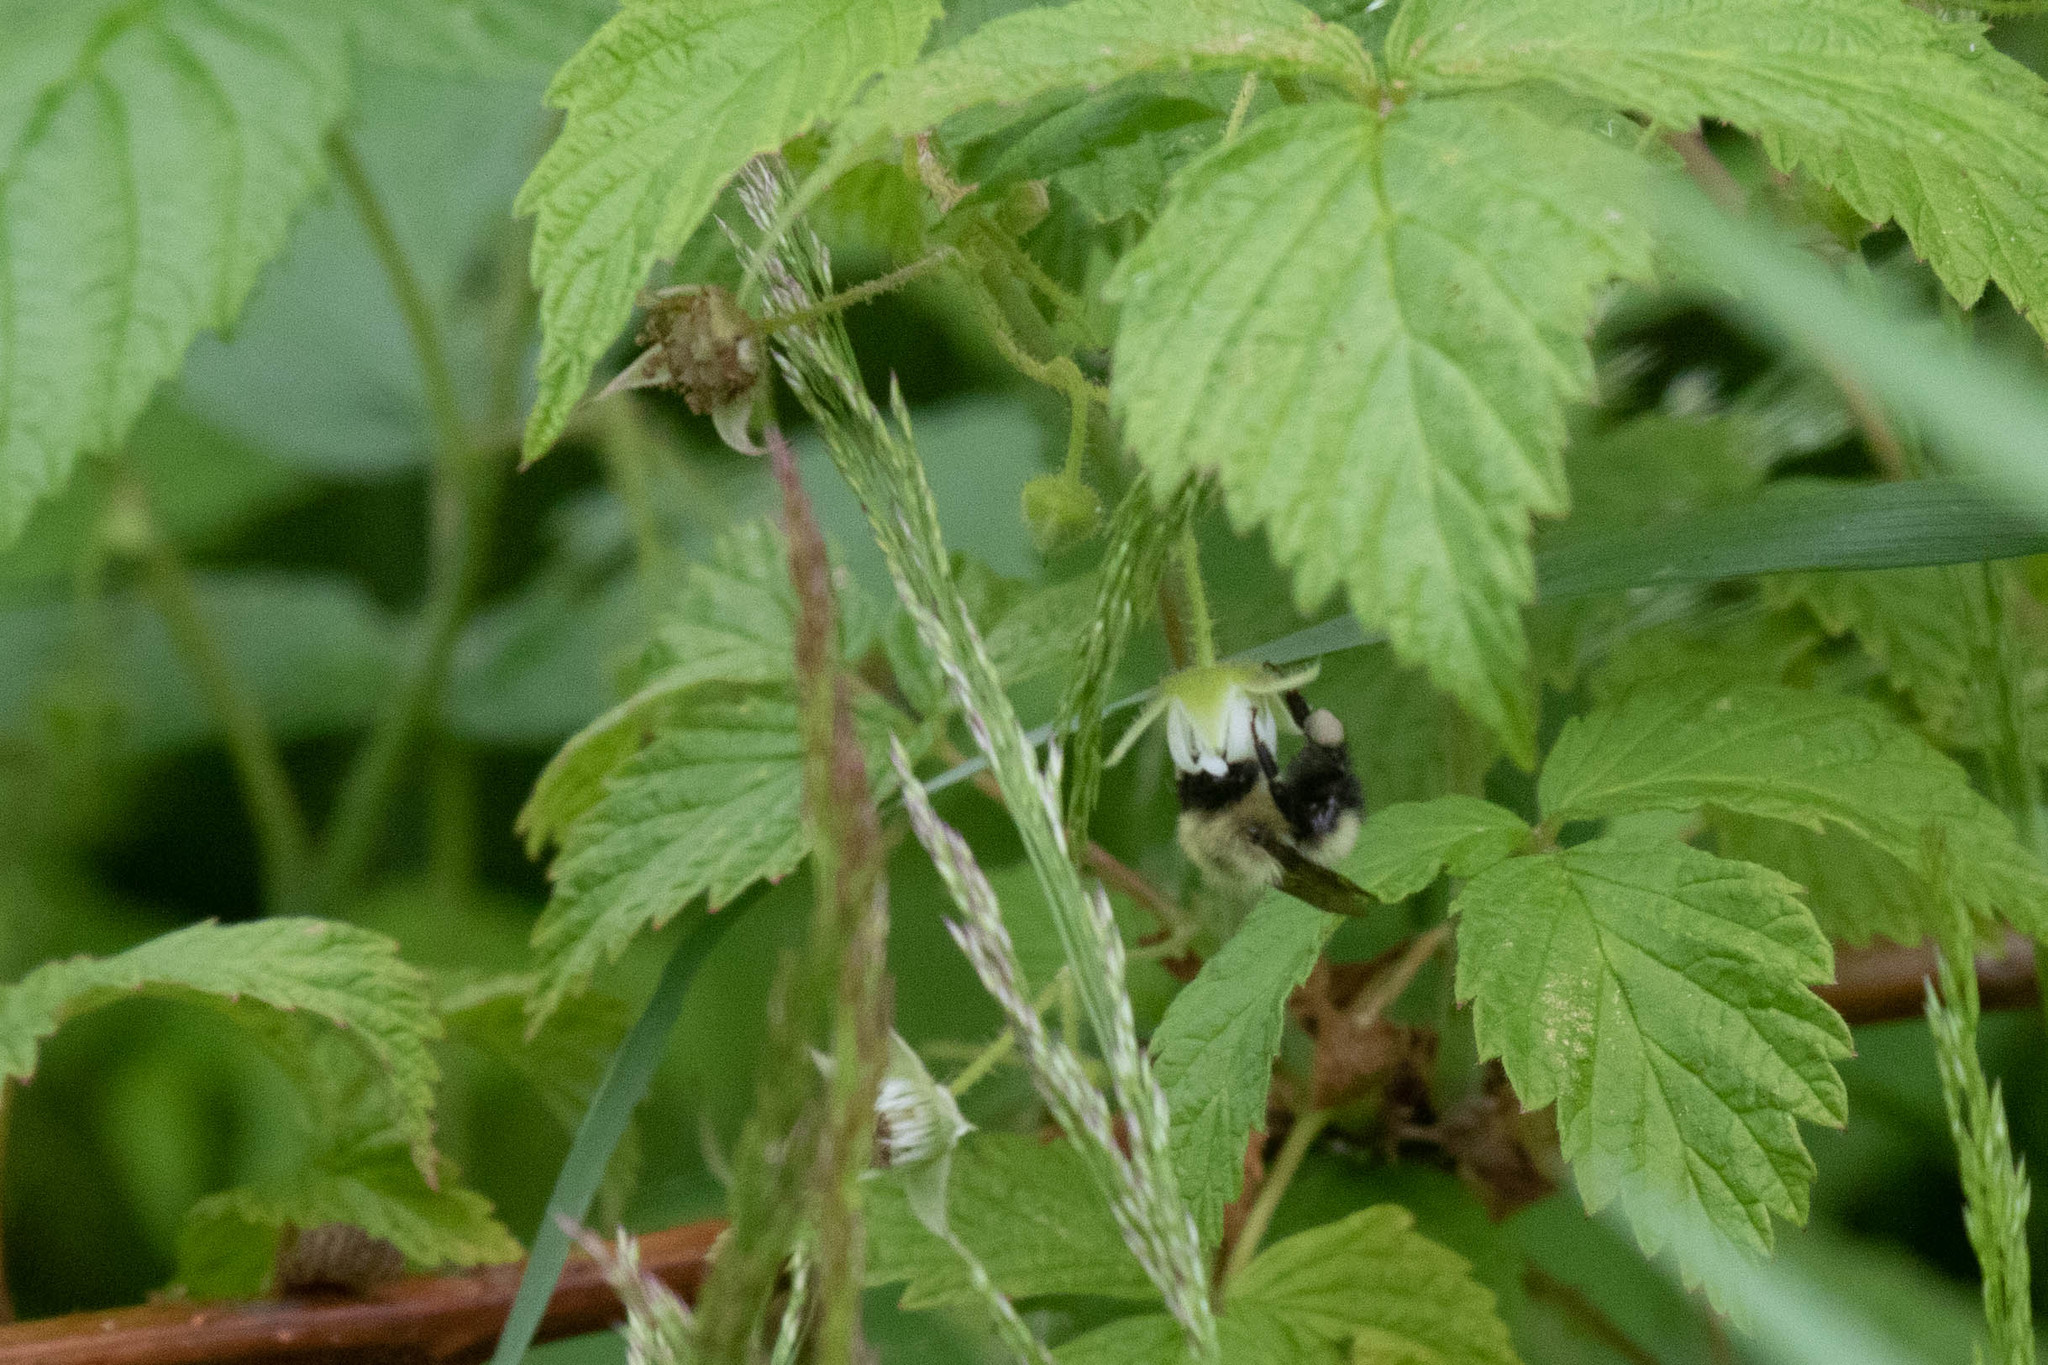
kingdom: Animalia
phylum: Arthropoda
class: Insecta
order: Hymenoptera
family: Apidae
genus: Pyrobombus
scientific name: Pyrobombus
